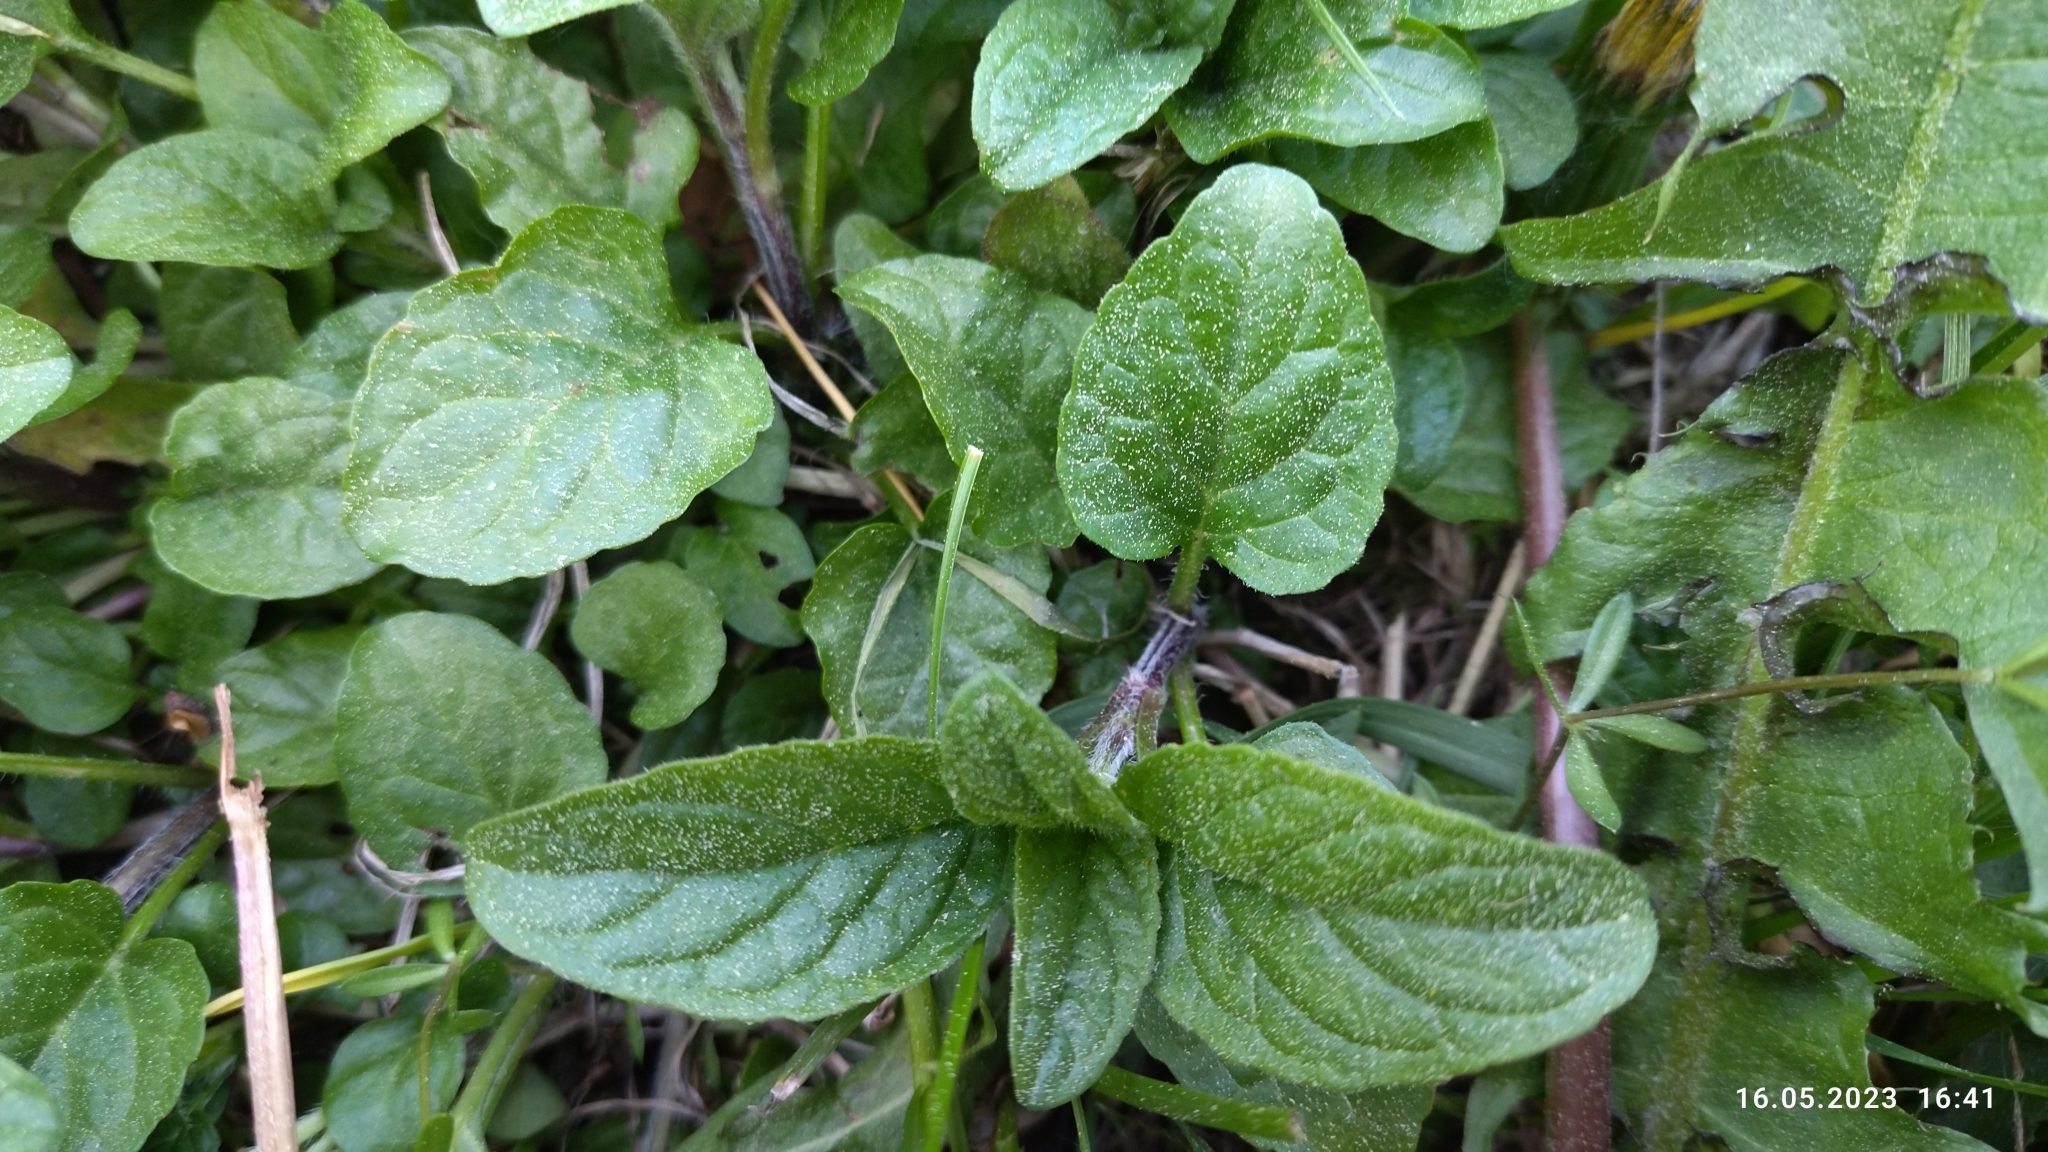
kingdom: Plantae
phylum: Tracheophyta
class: Magnoliopsida
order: Lamiales
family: Lamiaceae
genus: Prunella
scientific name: Prunella vulgaris
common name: Heal-all
